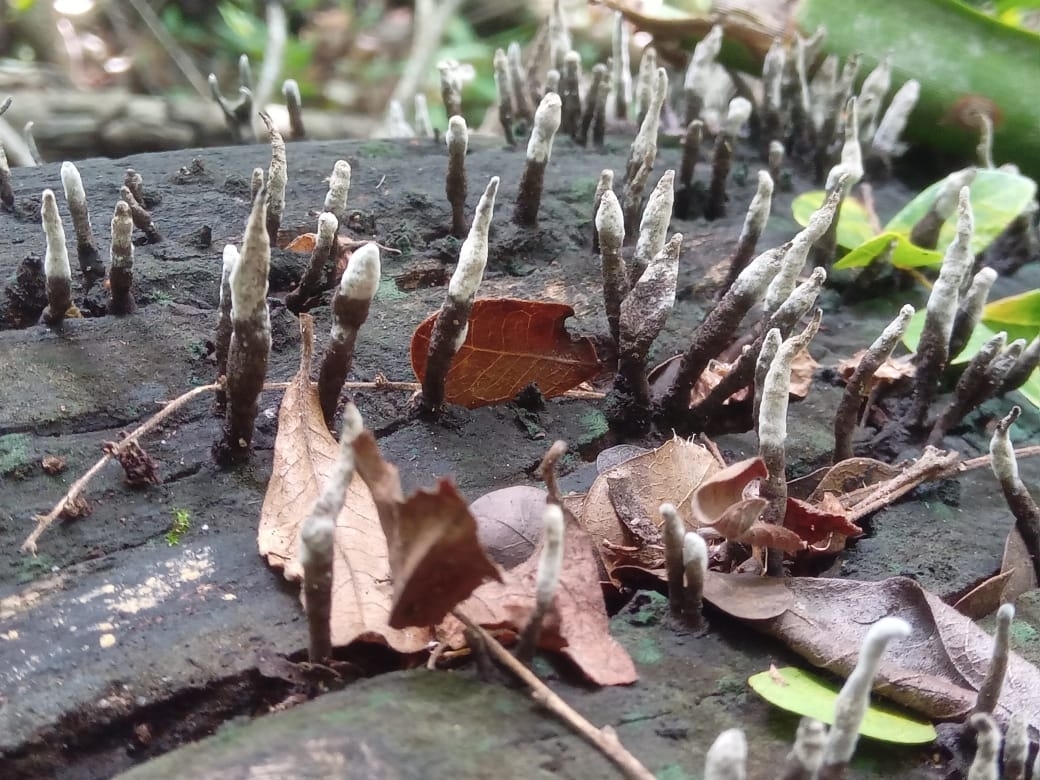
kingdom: Fungi
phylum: Ascomycota
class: Sordariomycetes
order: Xylariales
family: Xylariaceae
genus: Xylaria
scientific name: Xylaria hypoxylon
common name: Candle-snuff fungus
